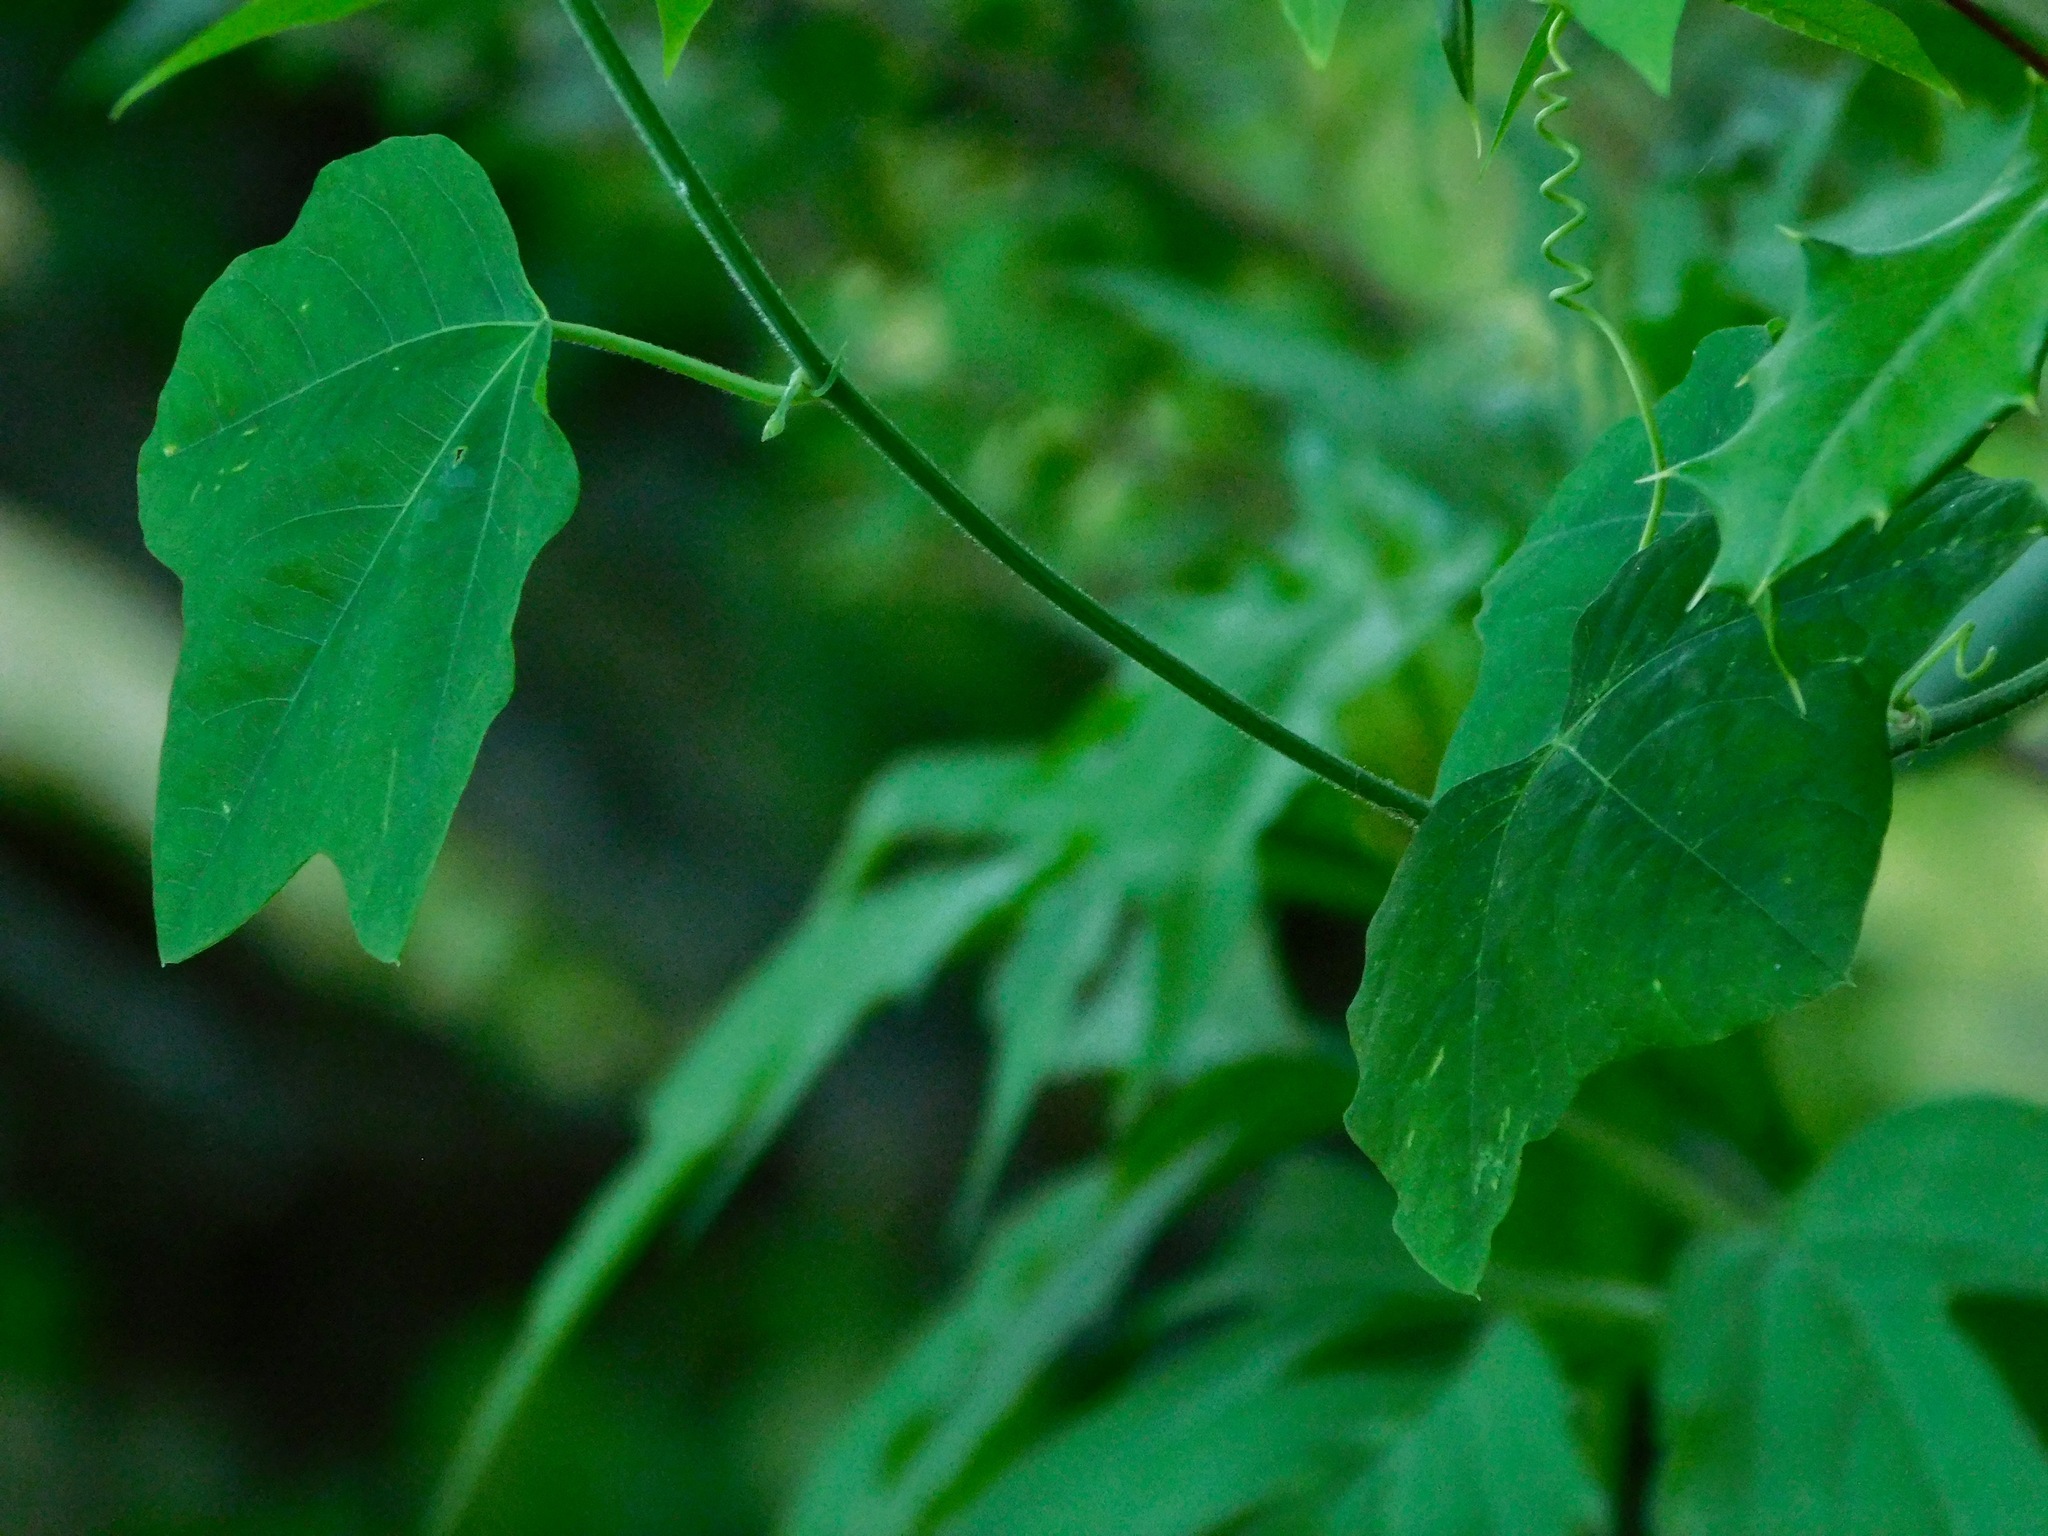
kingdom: Plantae
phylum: Tracheophyta
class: Magnoliopsida
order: Ranunculales
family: Menispermaceae
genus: Menispermum
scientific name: Menispermum canadense
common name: Moonseed
